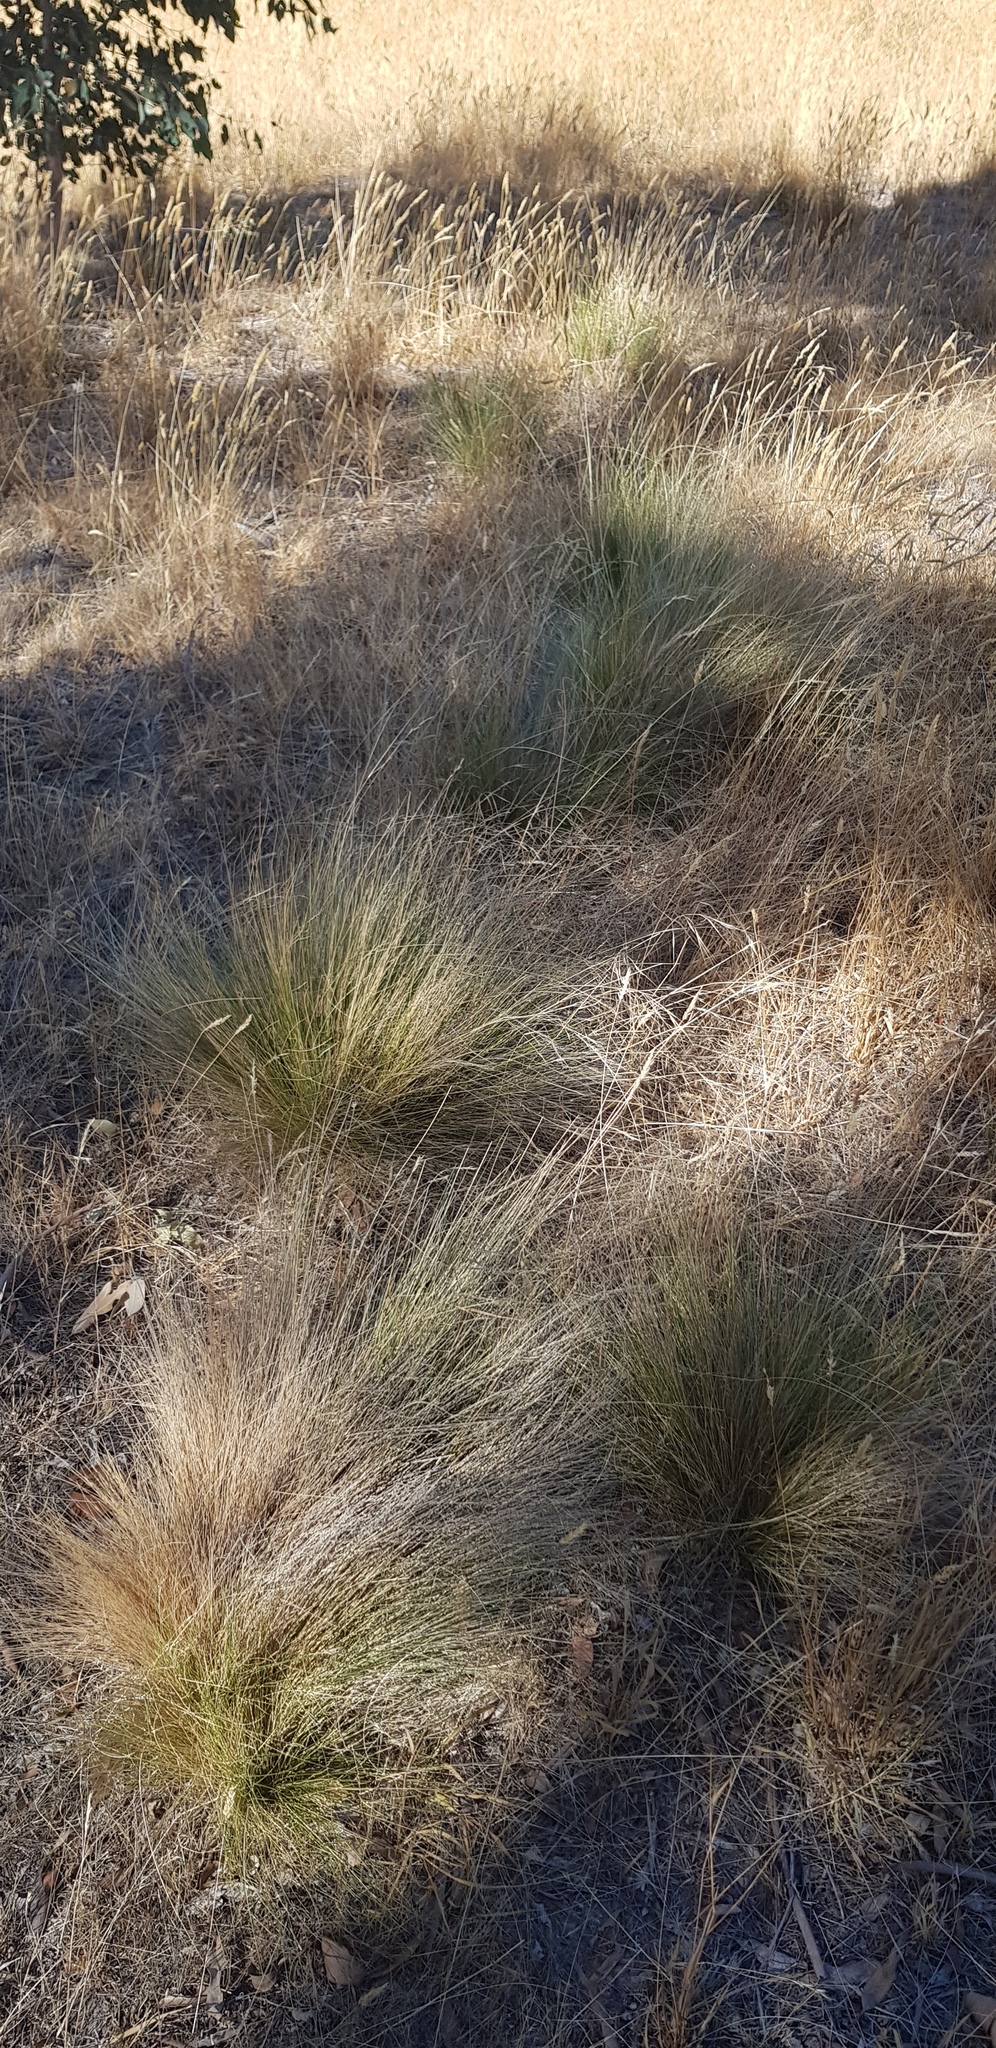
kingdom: Plantae
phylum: Tracheophyta
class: Liliopsida
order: Poales
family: Poaceae
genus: Nassella
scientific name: Nassella trichotoma
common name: Serrated tussock grass
